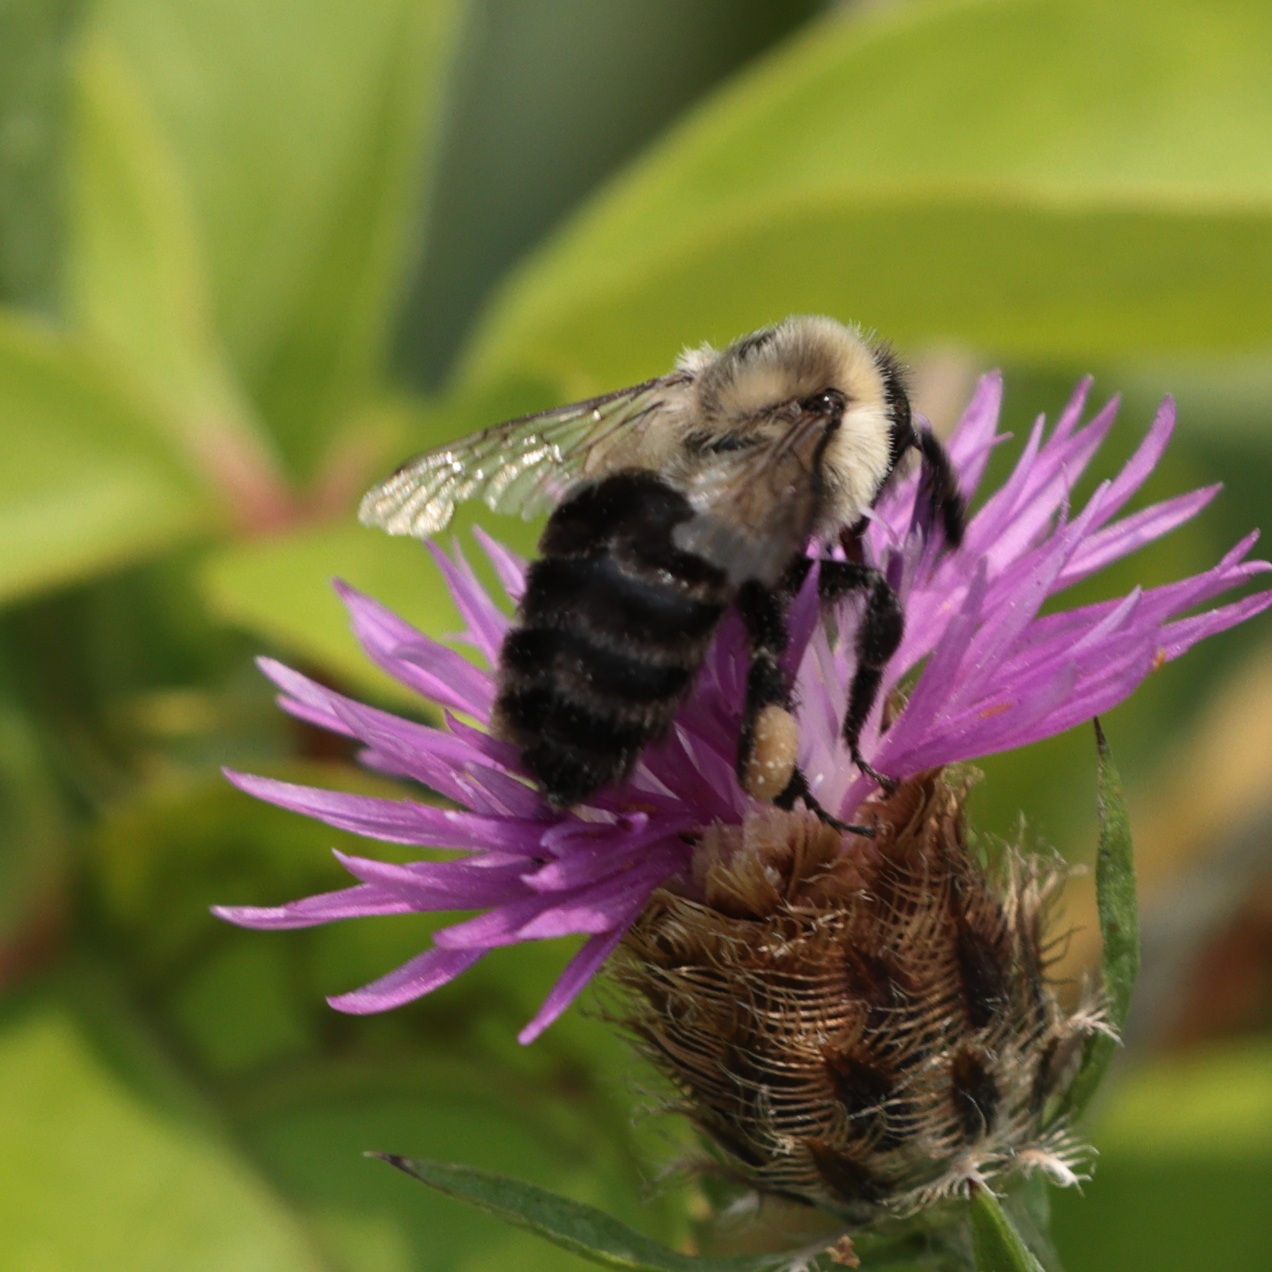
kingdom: Animalia
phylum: Arthropoda
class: Insecta
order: Hymenoptera
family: Apidae
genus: Bombus
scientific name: Bombus impatiens
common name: Common eastern bumble bee
